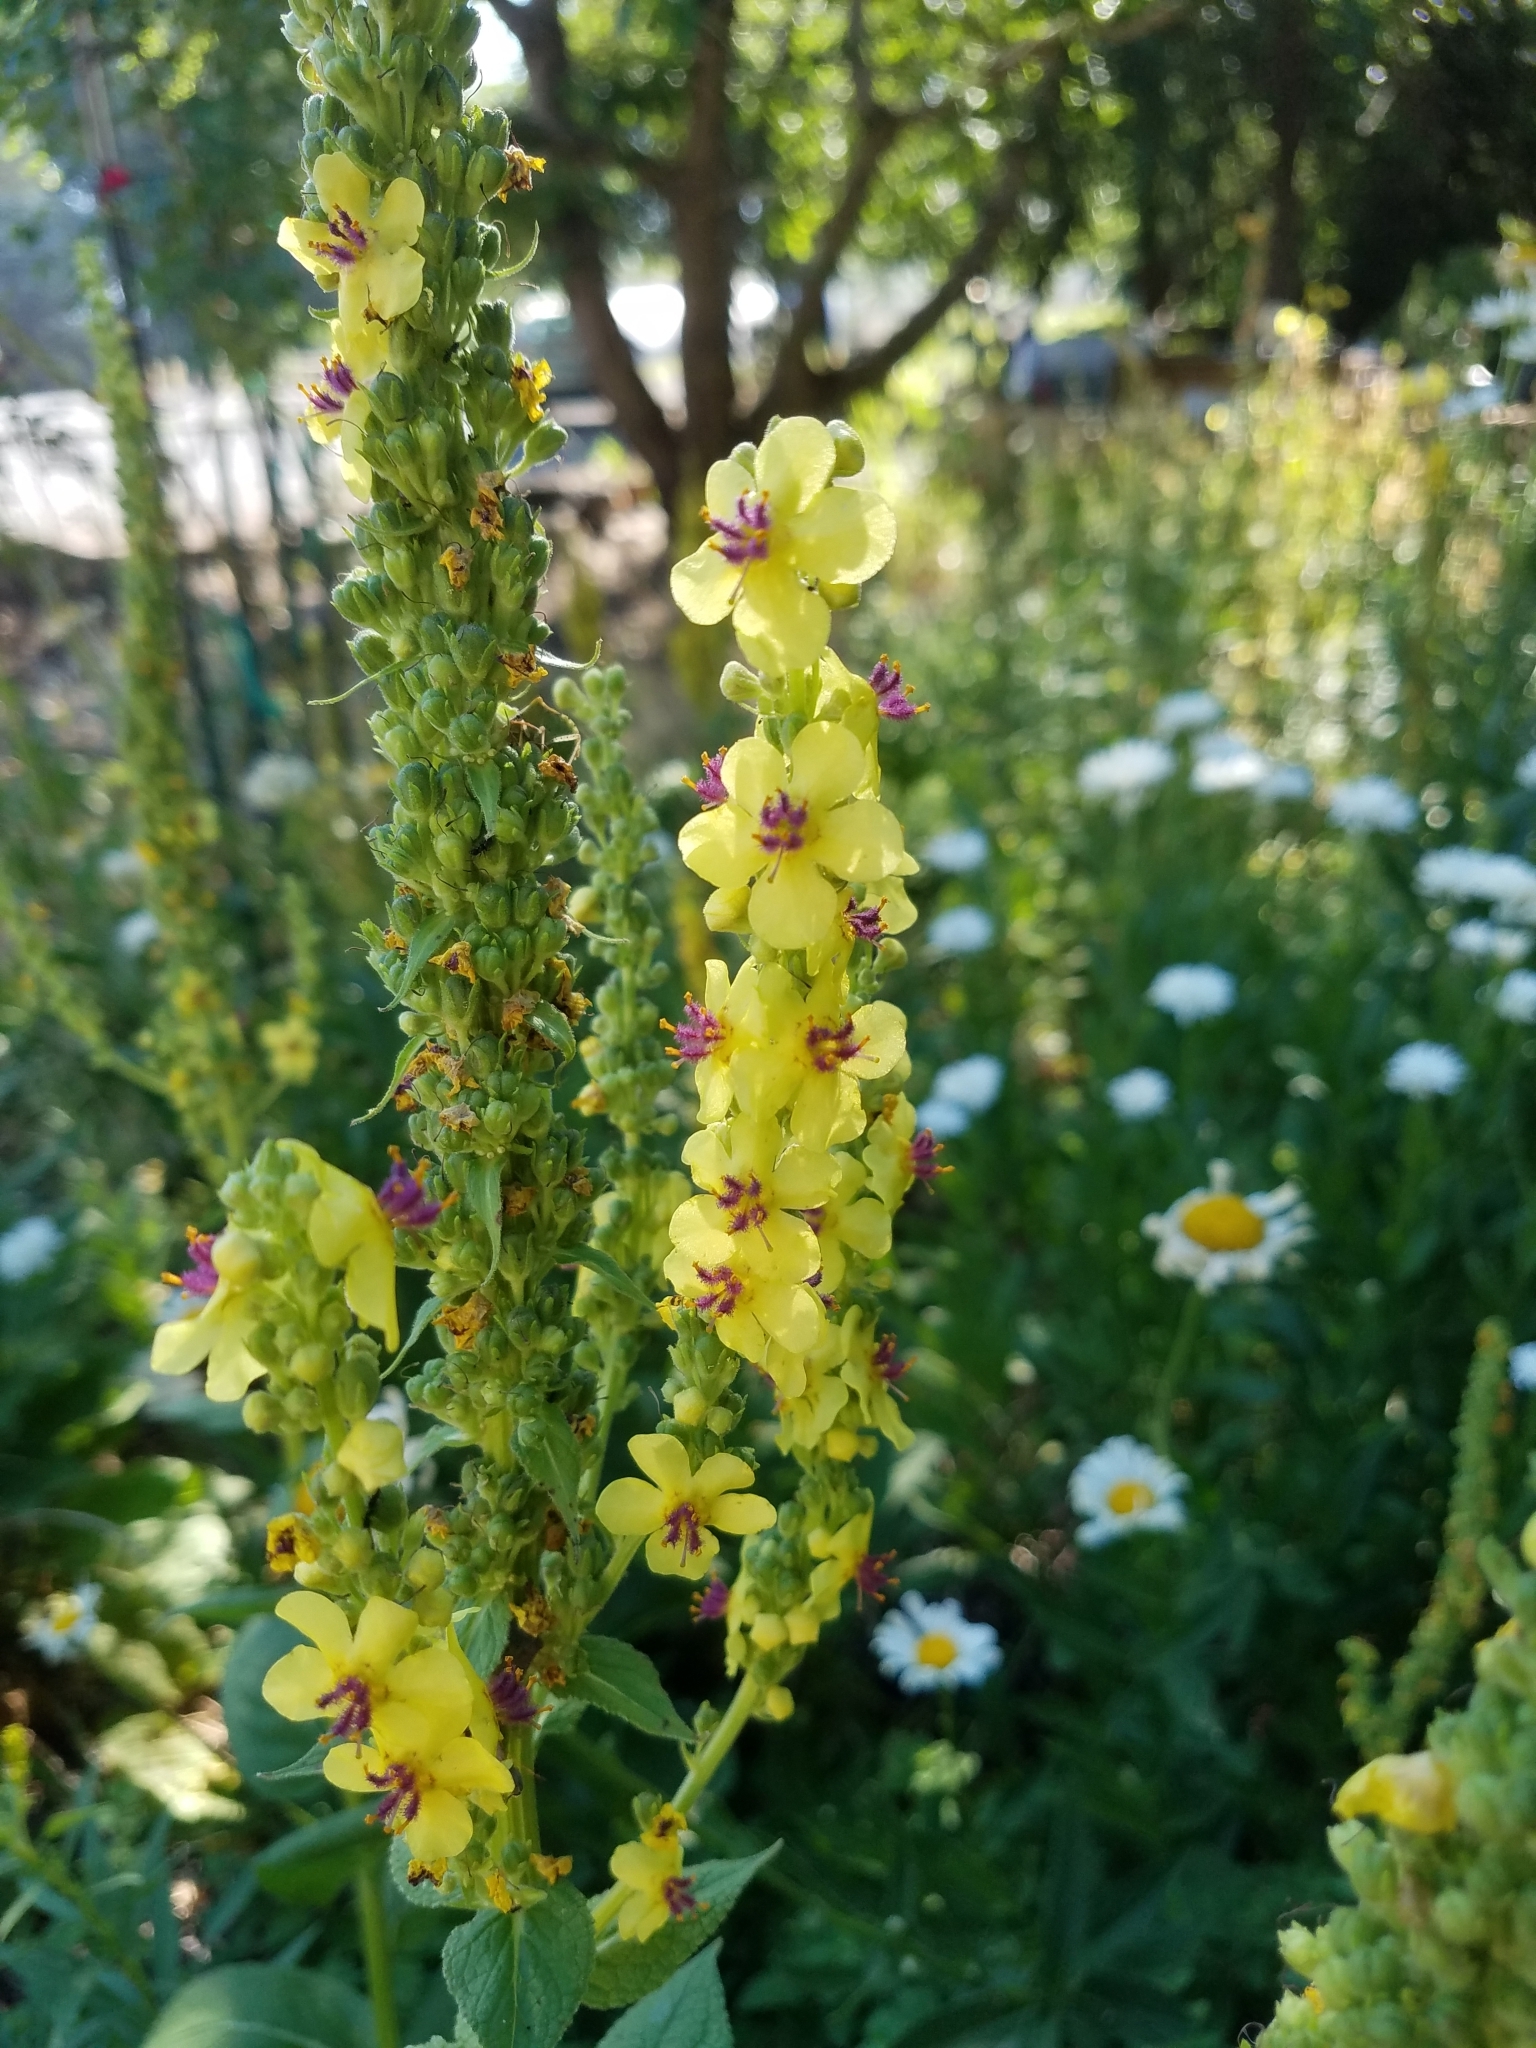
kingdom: Plantae
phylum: Tracheophyta
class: Magnoliopsida
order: Lamiales
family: Scrophulariaceae
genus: Verbascum
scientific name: Verbascum nigrum
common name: Dark mullein
